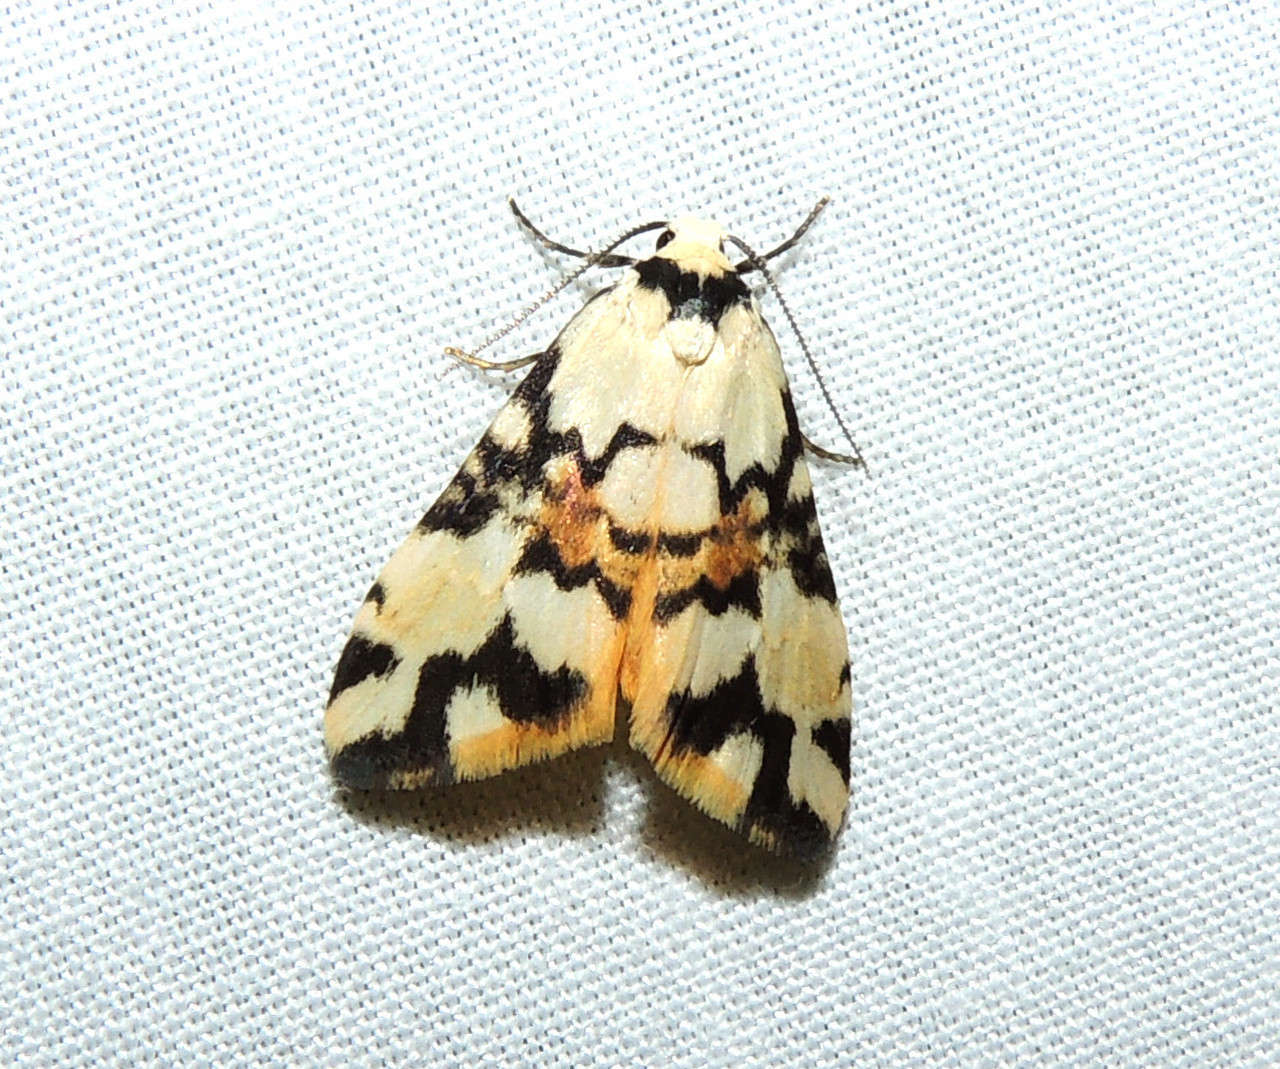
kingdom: Animalia
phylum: Arthropoda
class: Insecta
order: Lepidoptera
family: Erebidae
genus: Thallarcha
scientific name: Thallarcha oblita
